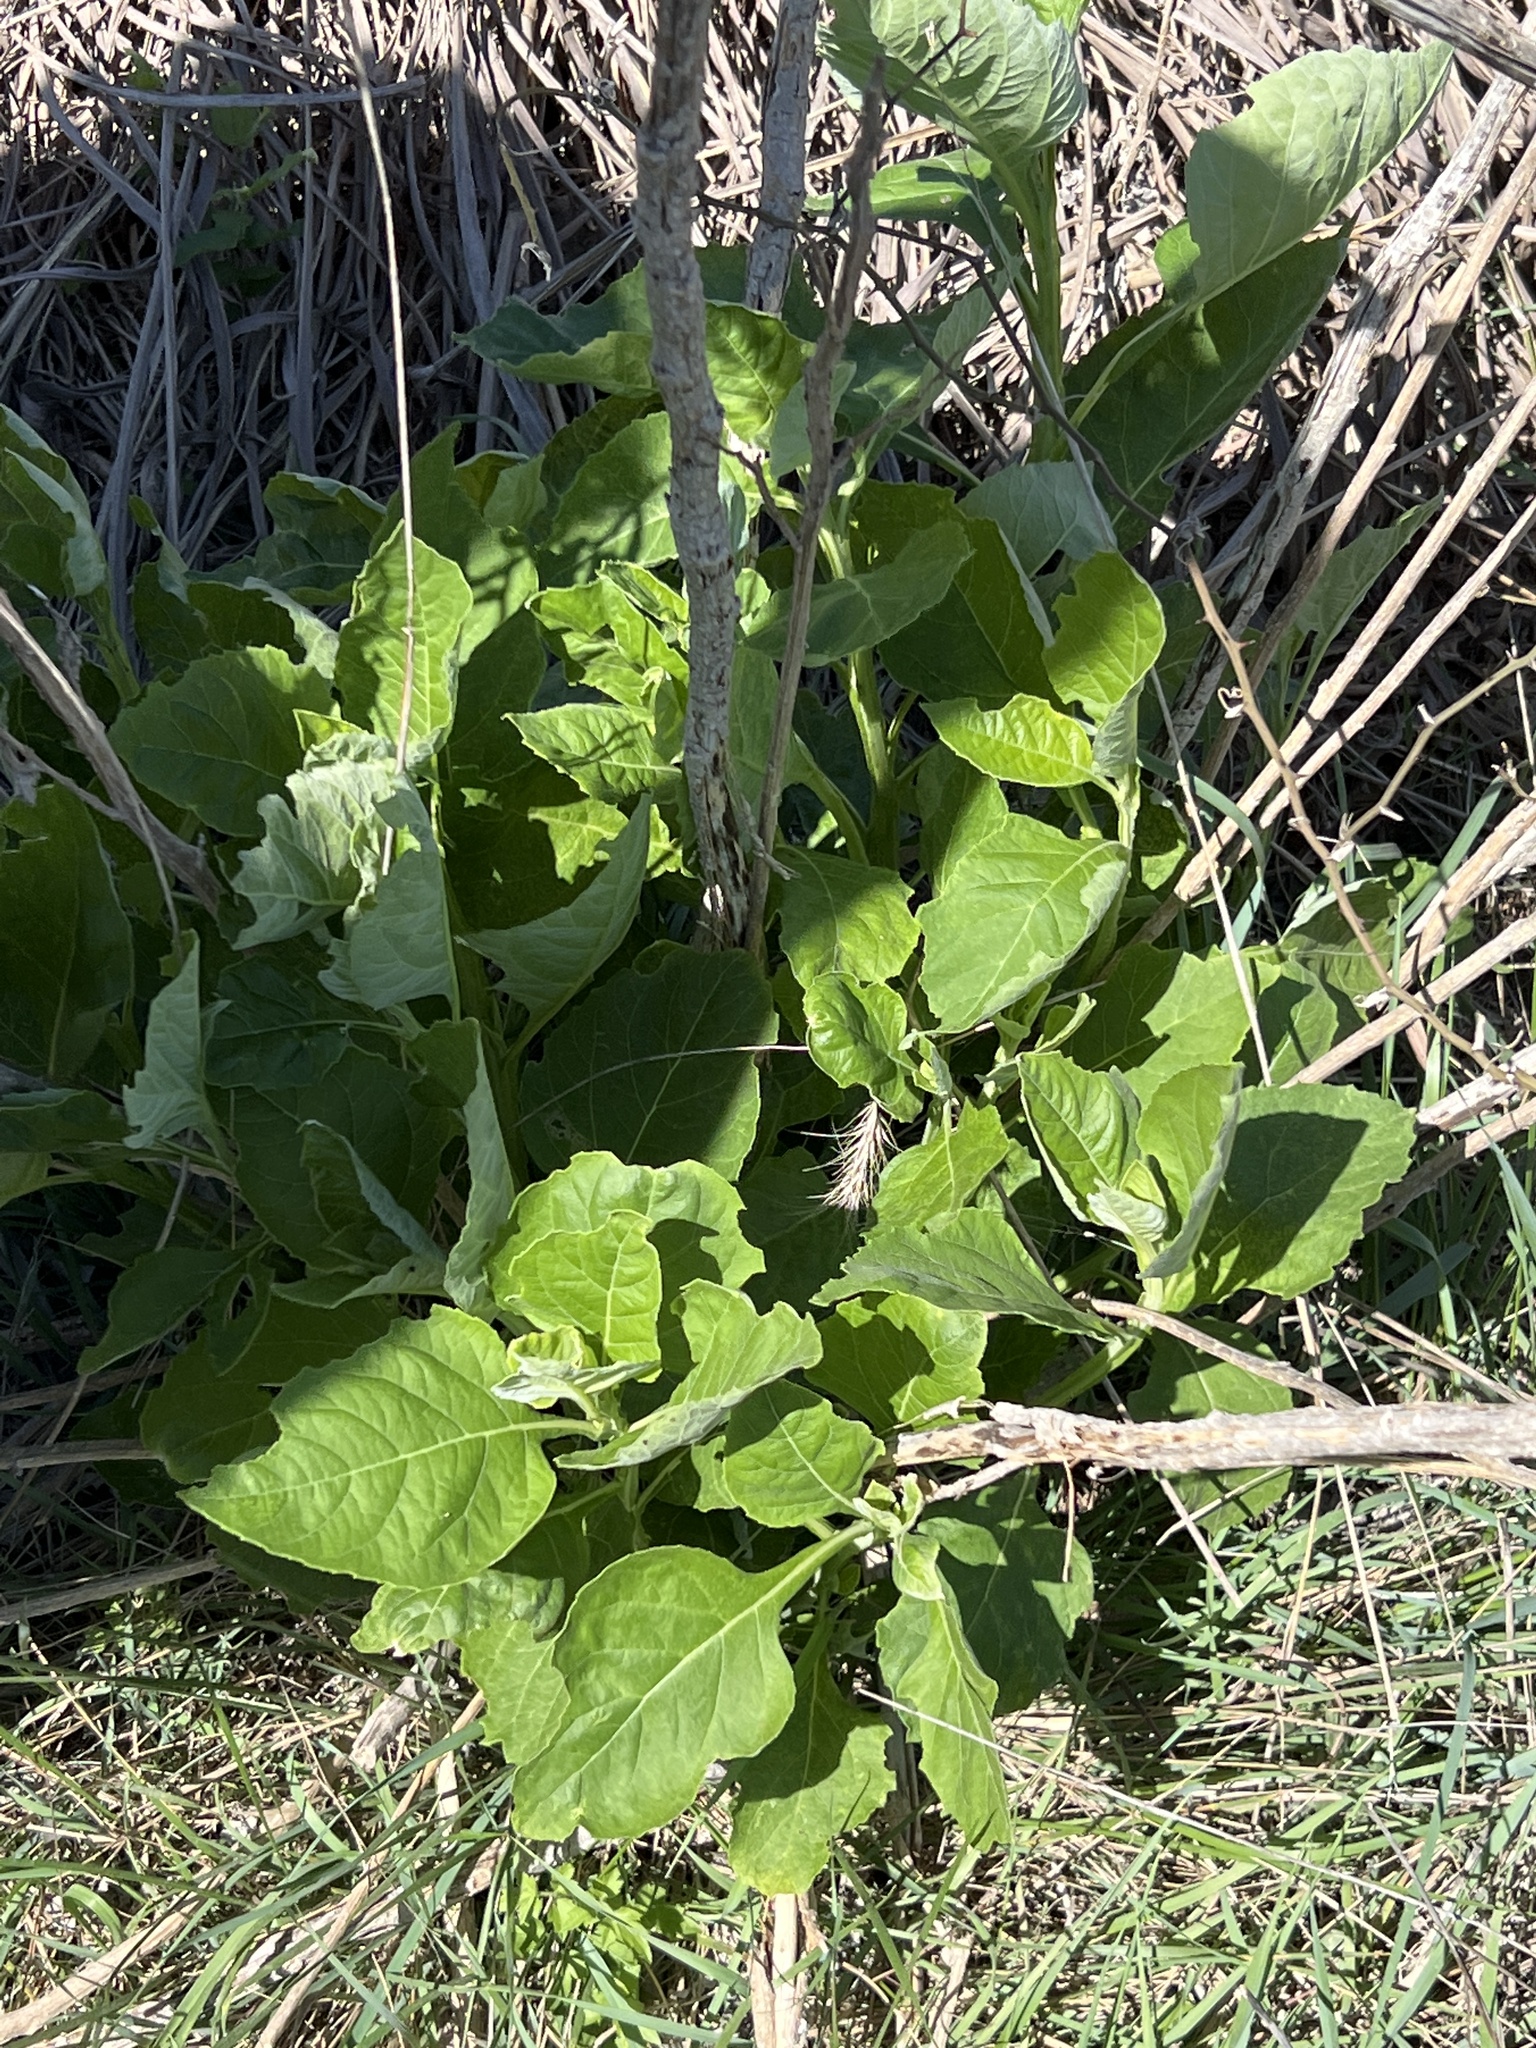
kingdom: Plantae
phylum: Tracheophyta
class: Magnoliopsida
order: Asterales
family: Asteraceae
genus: Verbesina
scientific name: Verbesina virginica
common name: Frostweed
